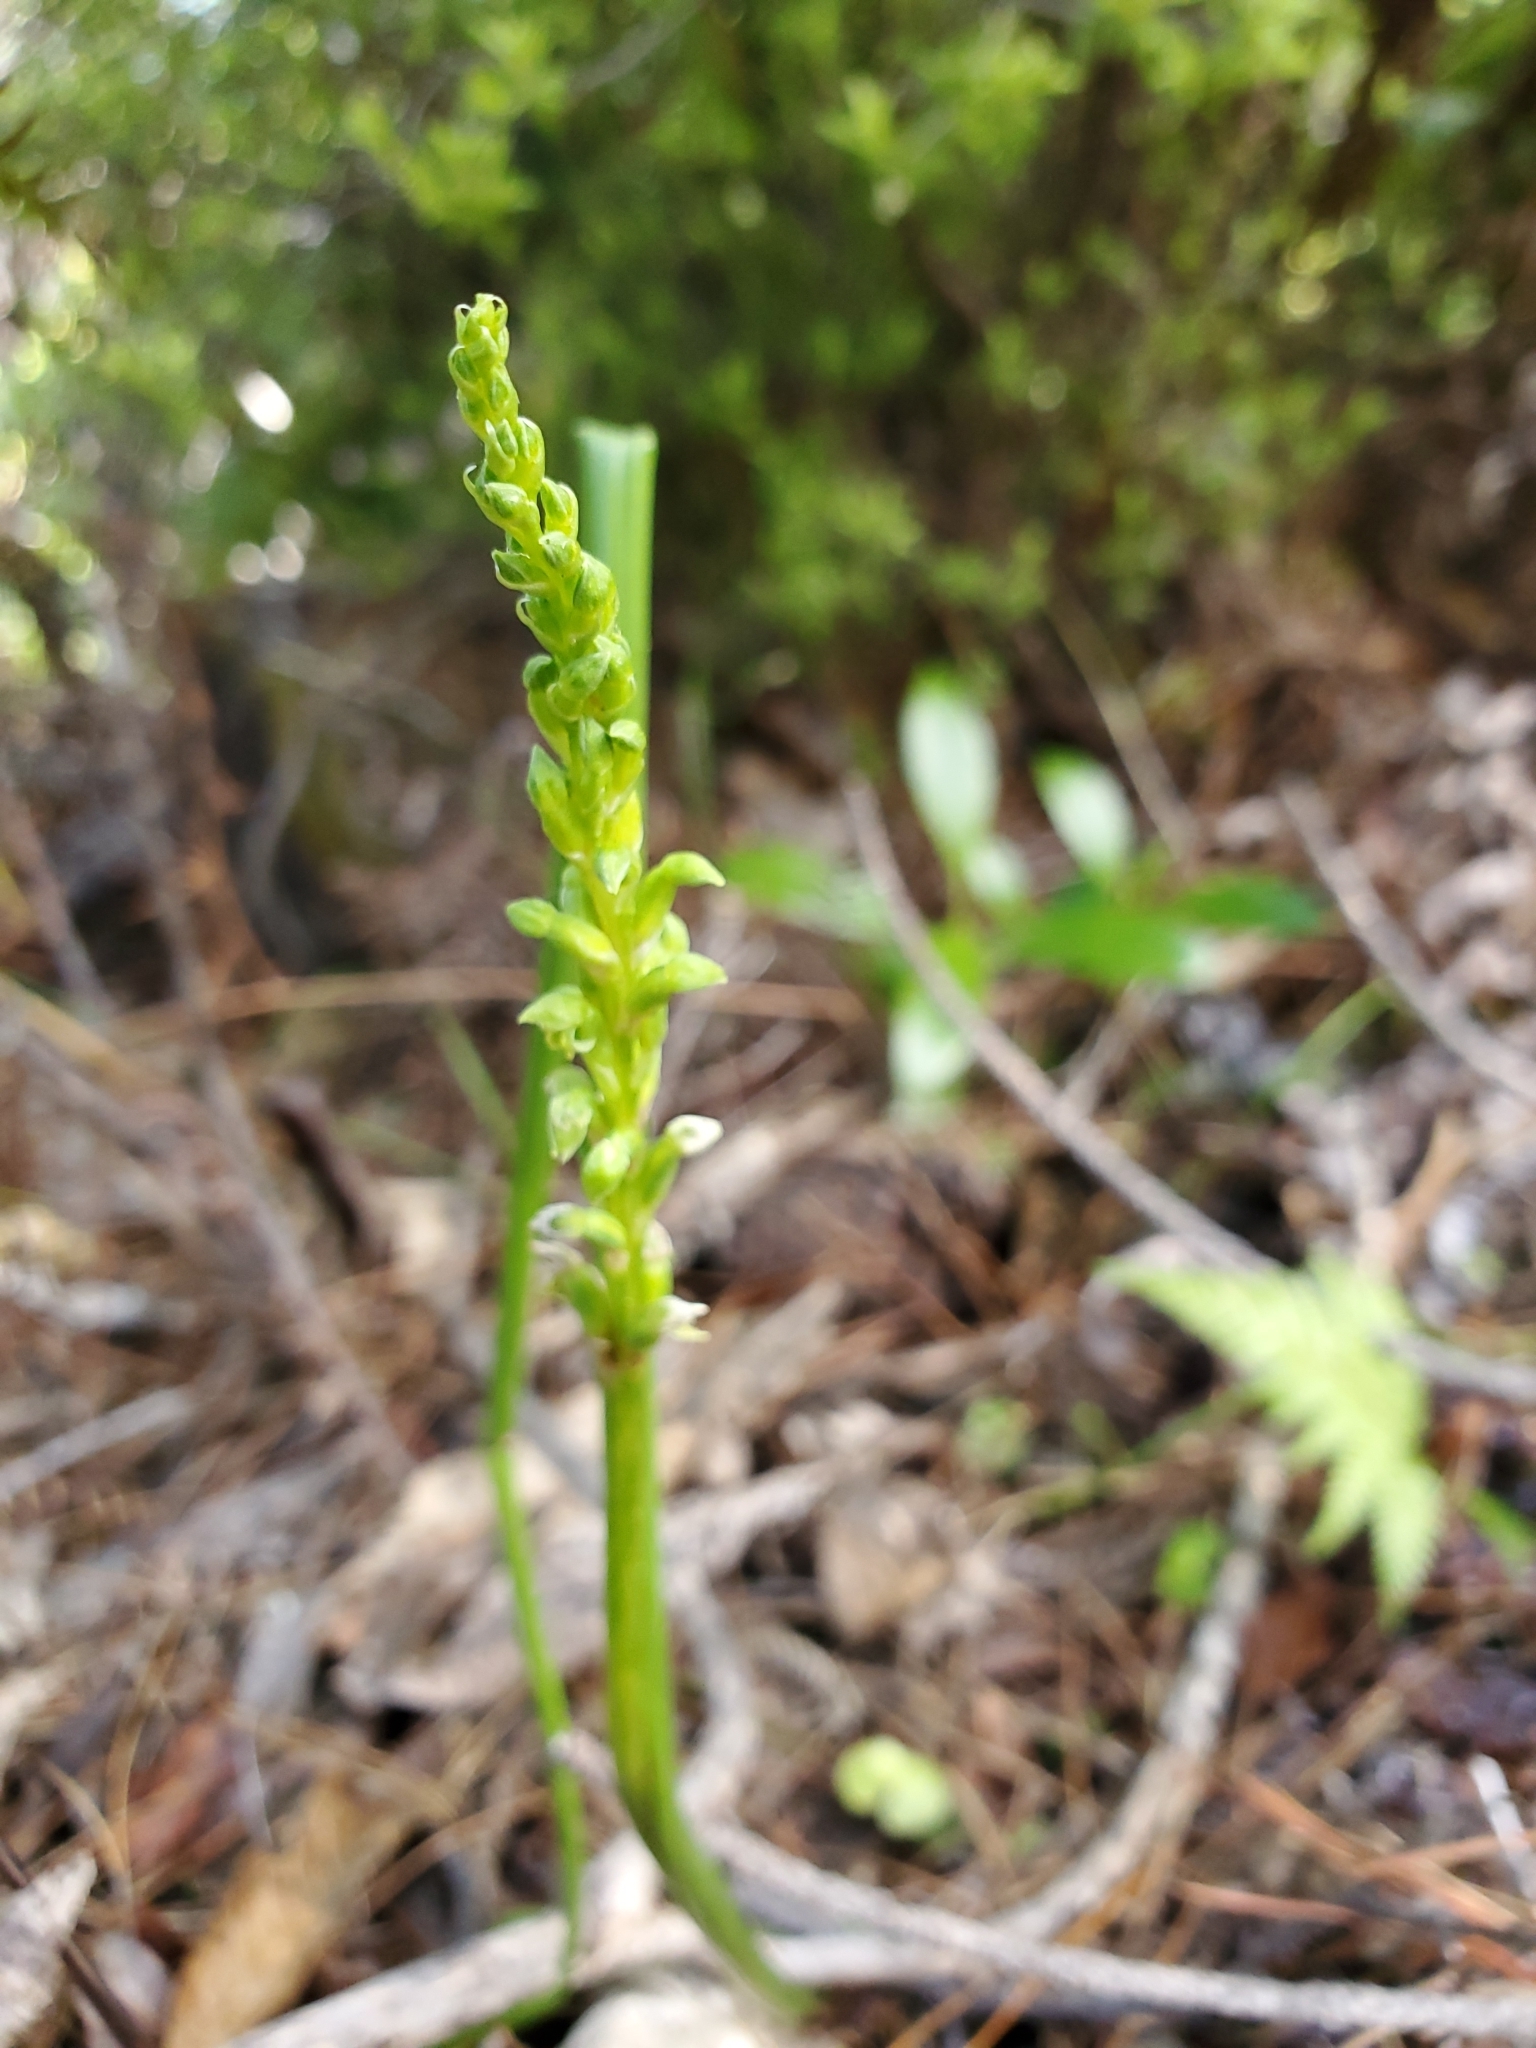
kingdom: Plantae
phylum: Tracheophyta
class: Liliopsida
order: Asparagales
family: Orchidaceae
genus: Microtis
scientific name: Microtis unifolia
